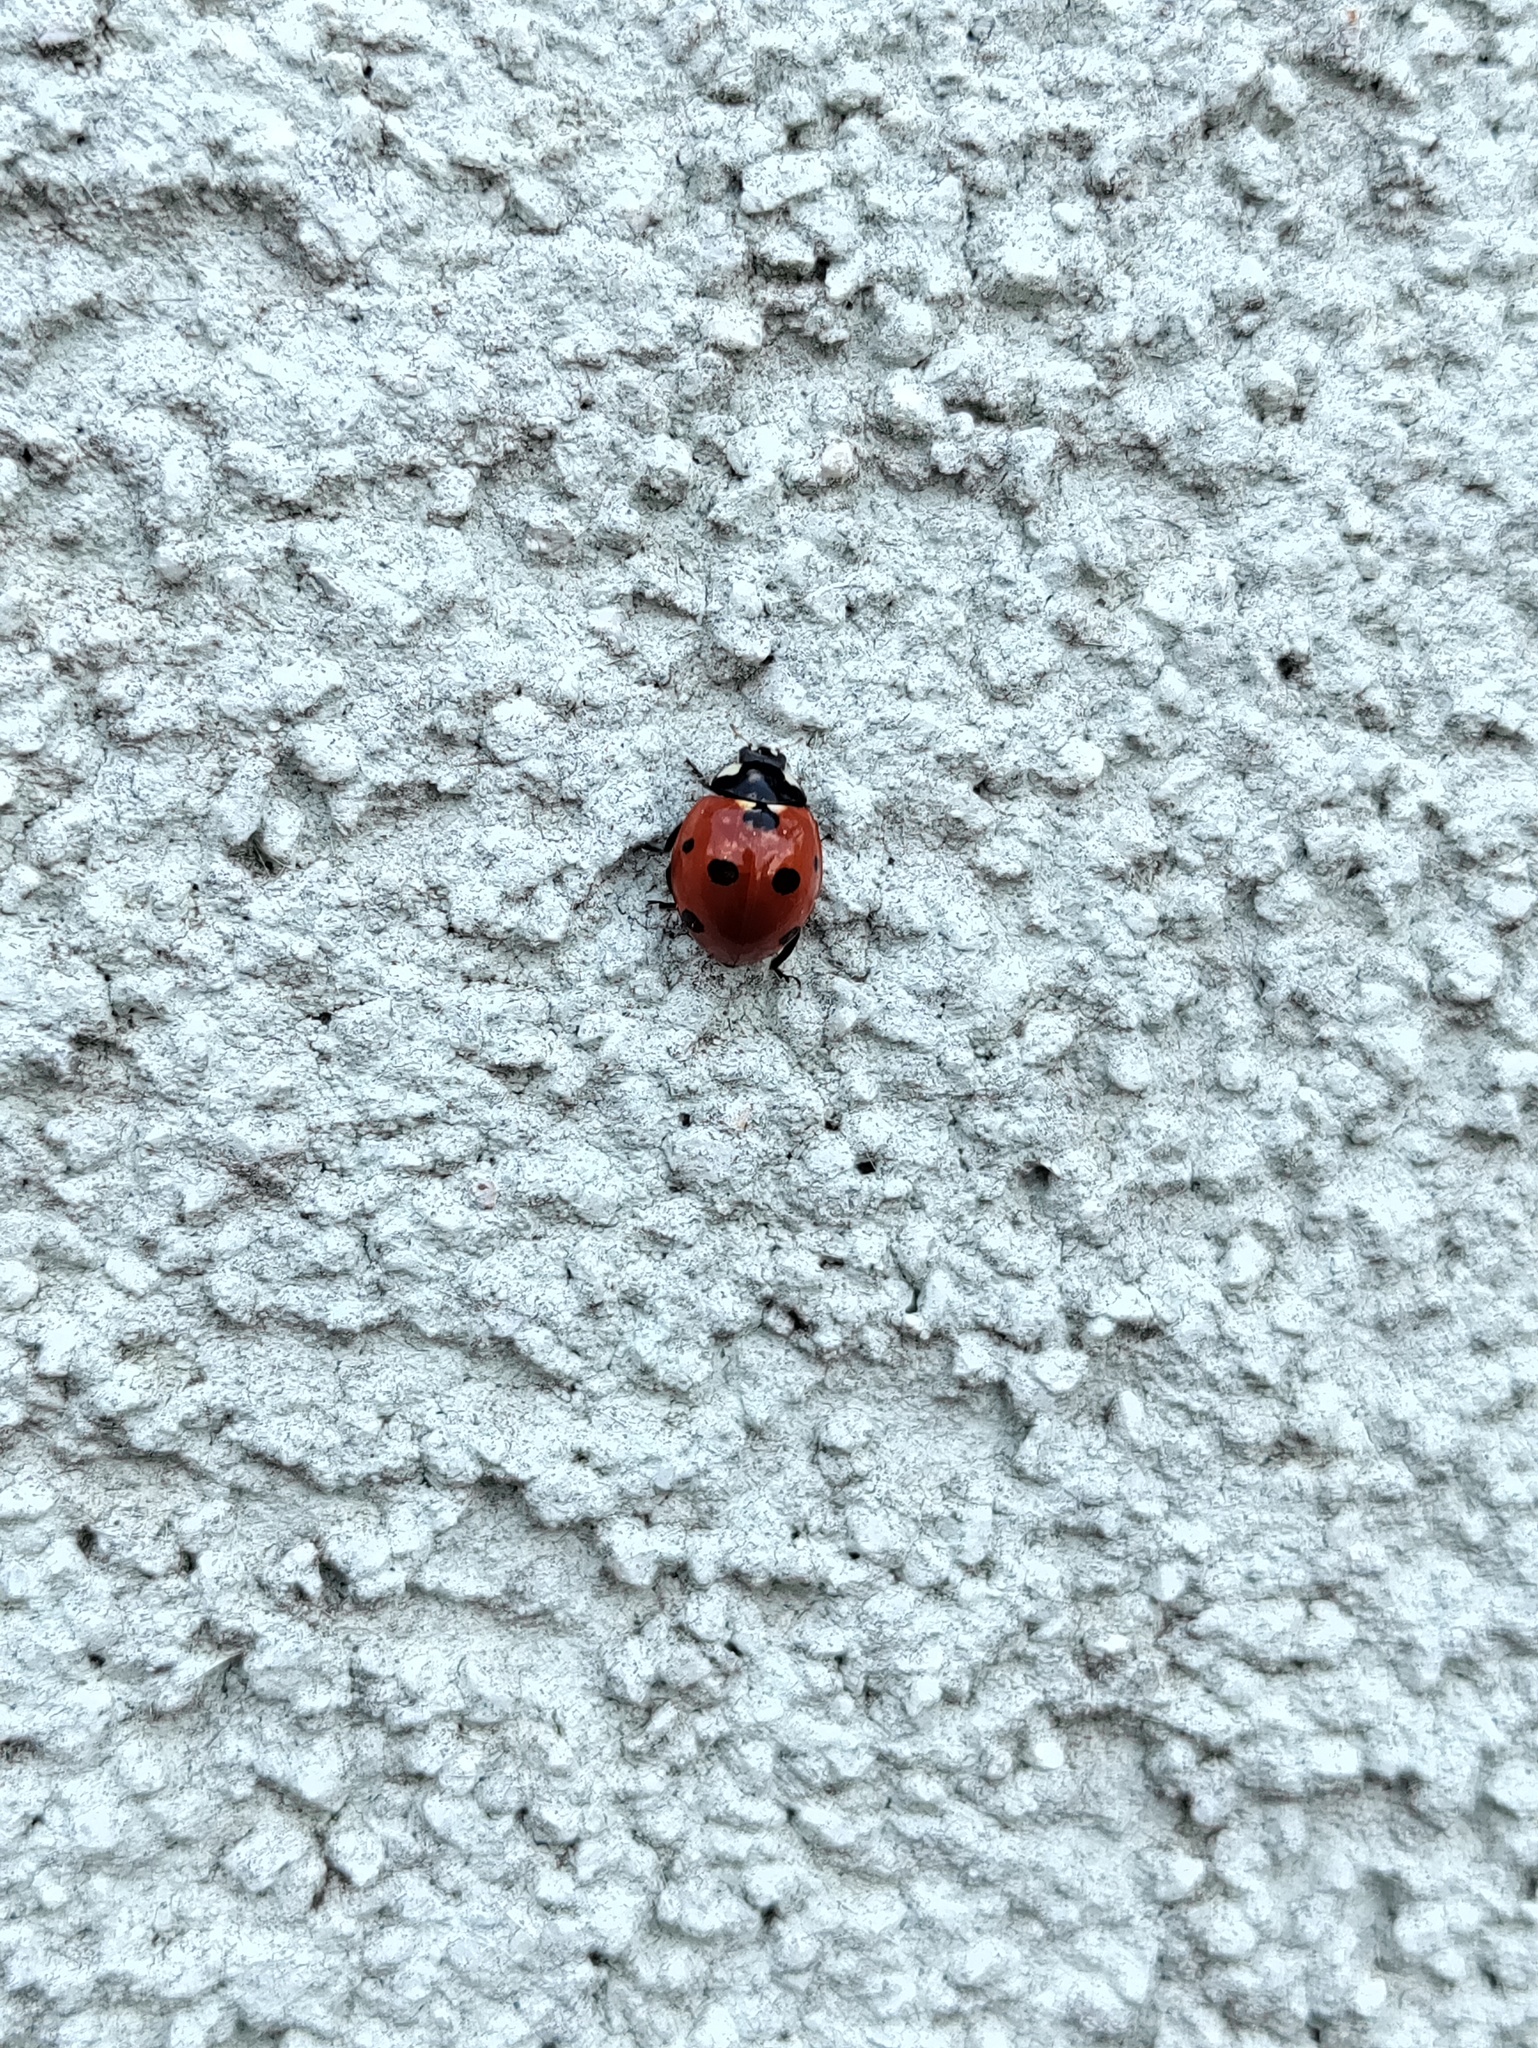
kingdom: Animalia
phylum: Arthropoda
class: Insecta
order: Coleoptera
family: Coccinellidae
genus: Coccinella
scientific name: Coccinella septempunctata
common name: Sevenspotted lady beetle
